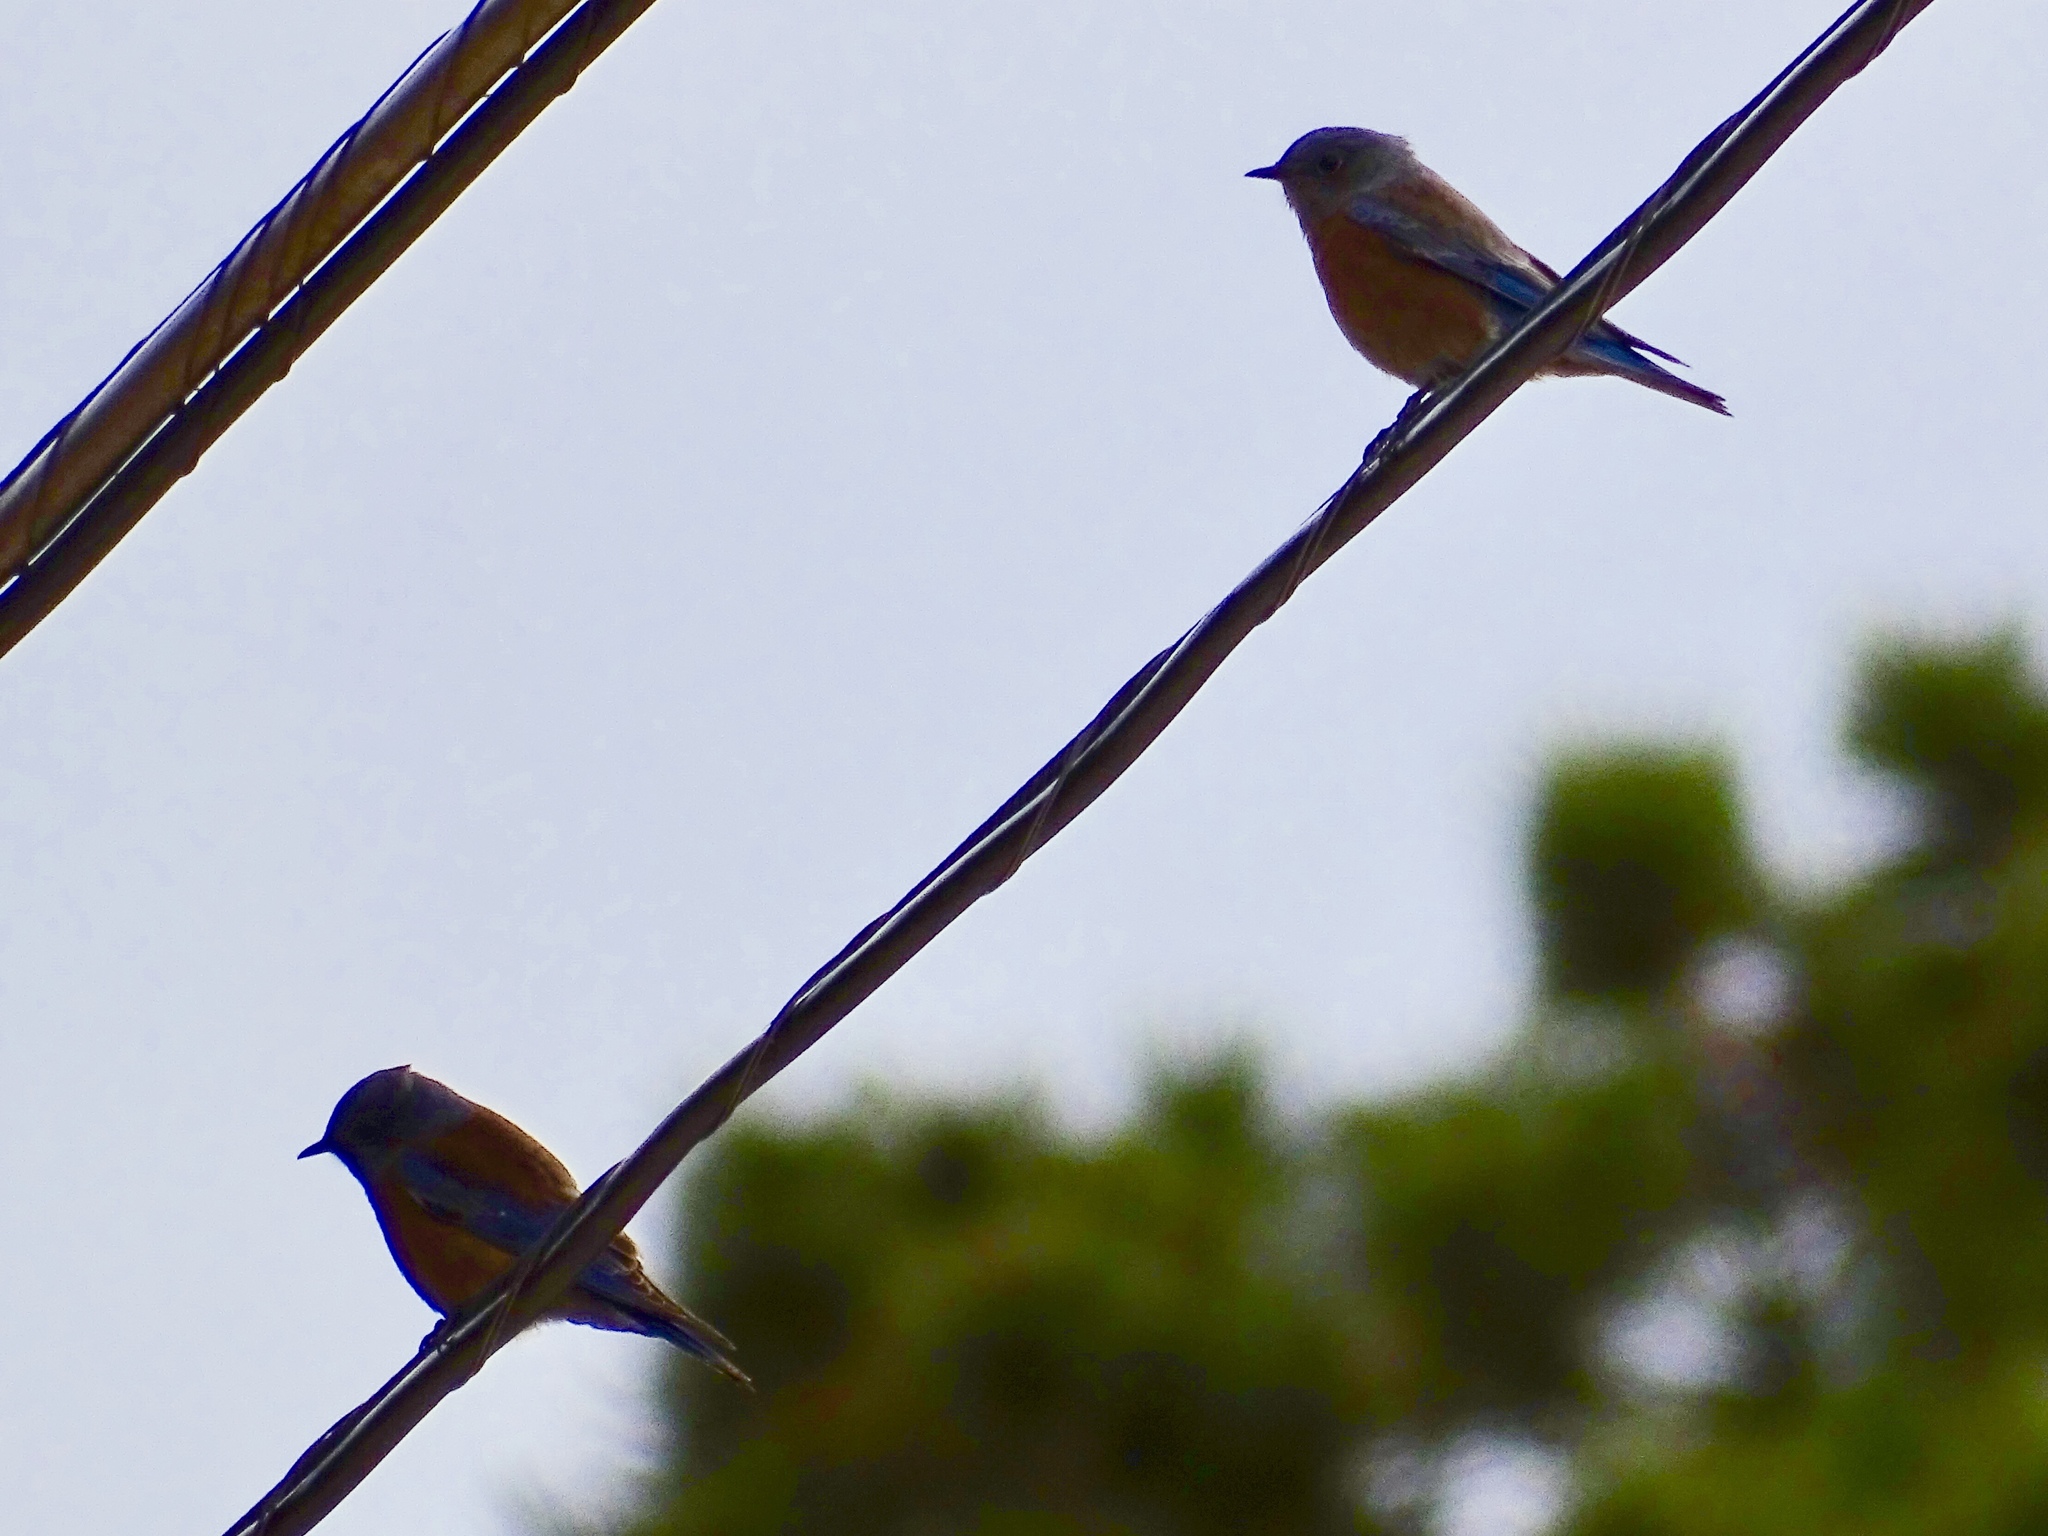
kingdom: Animalia
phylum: Chordata
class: Aves
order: Passeriformes
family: Turdidae
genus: Sialia
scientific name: Sialia mexicana
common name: Western bluebird
